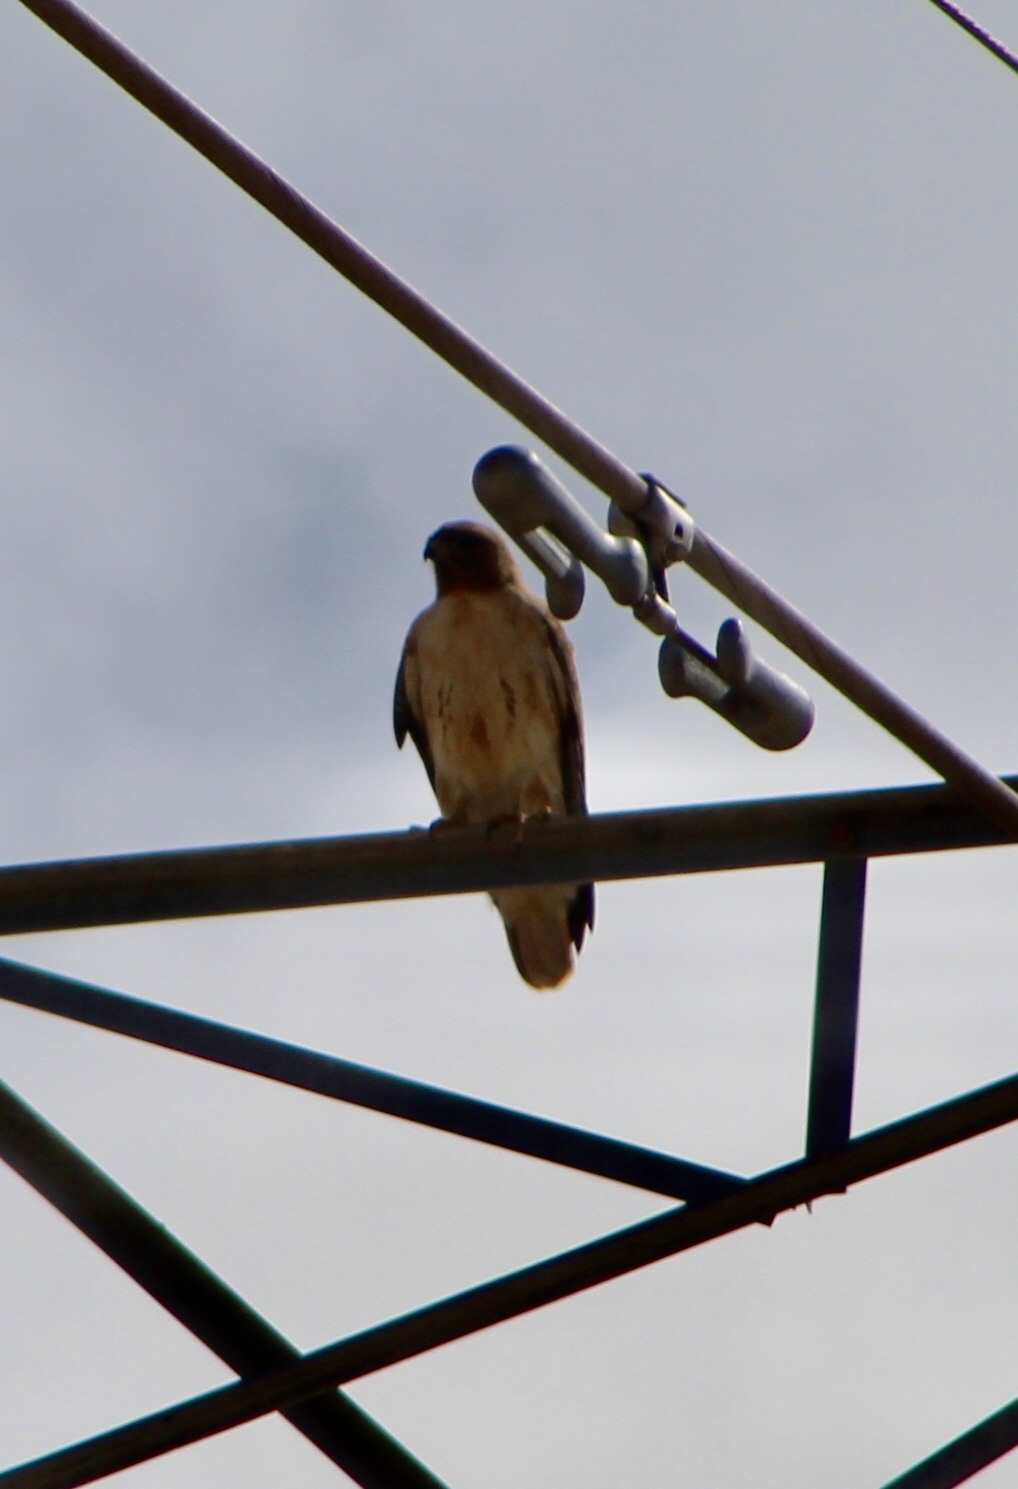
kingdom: Animalia
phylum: Chordata
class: Aves
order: Accipitriformes
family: Accipitridae
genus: Buteo
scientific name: Buteo jamaicensis
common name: Red-tailed hawk
